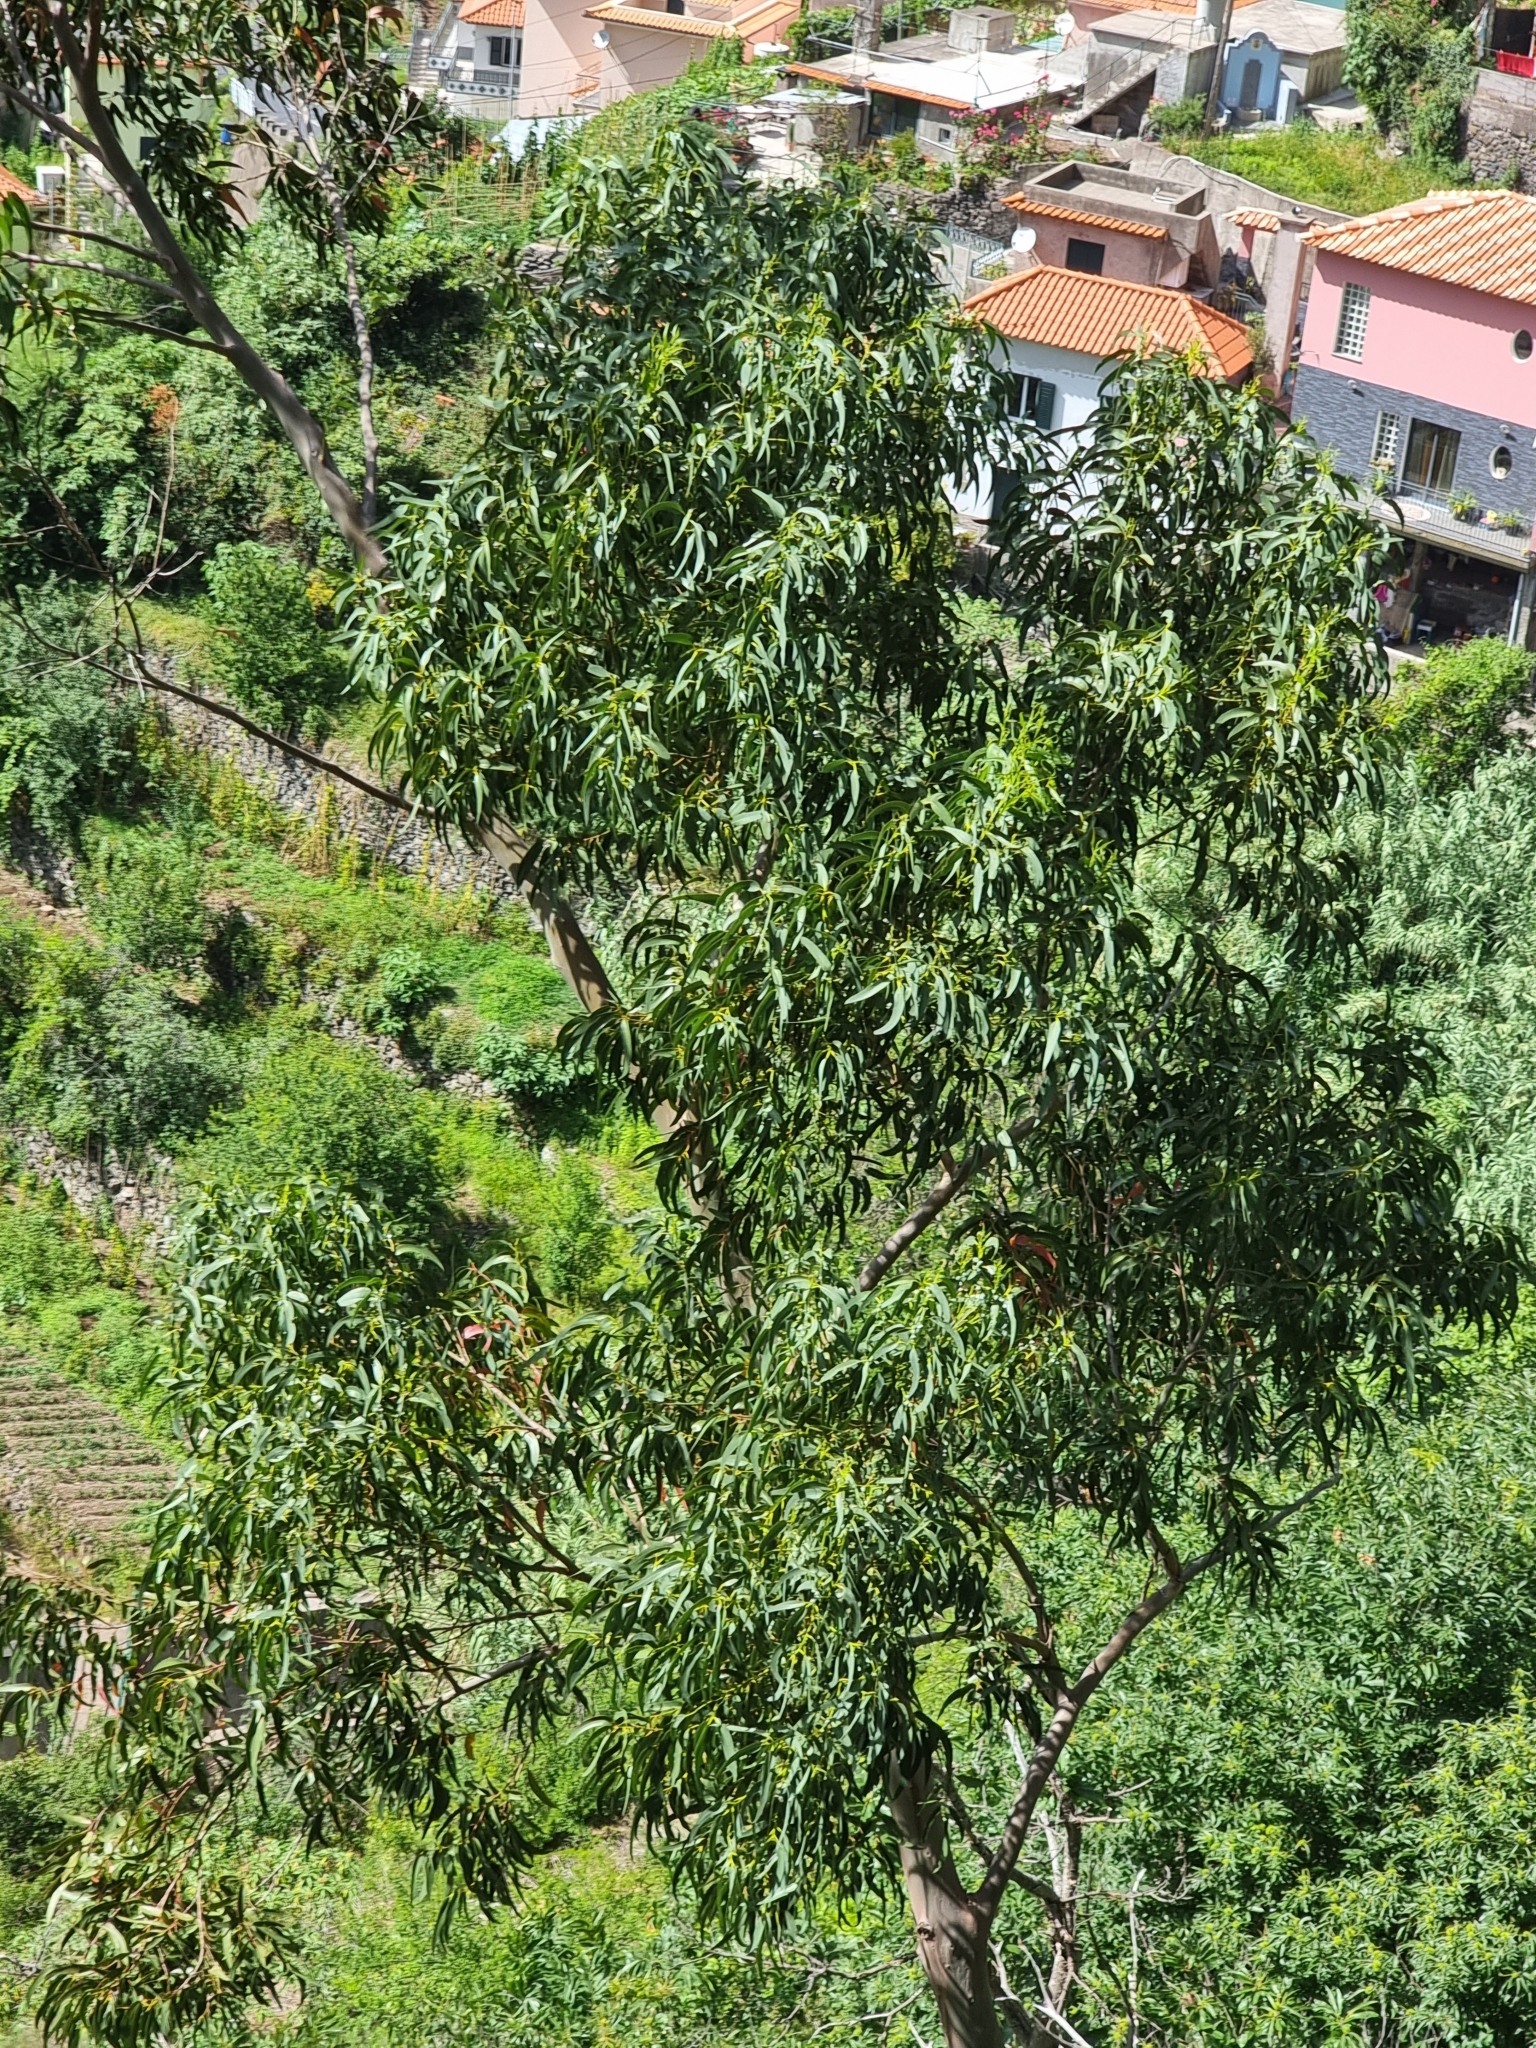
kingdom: Plantae
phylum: Tracheophyta
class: Magnoliopsida
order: Myrtales
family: Myrtaceae
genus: Eucalyptus
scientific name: Eucalyptus globulus
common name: Southern blue-gum
